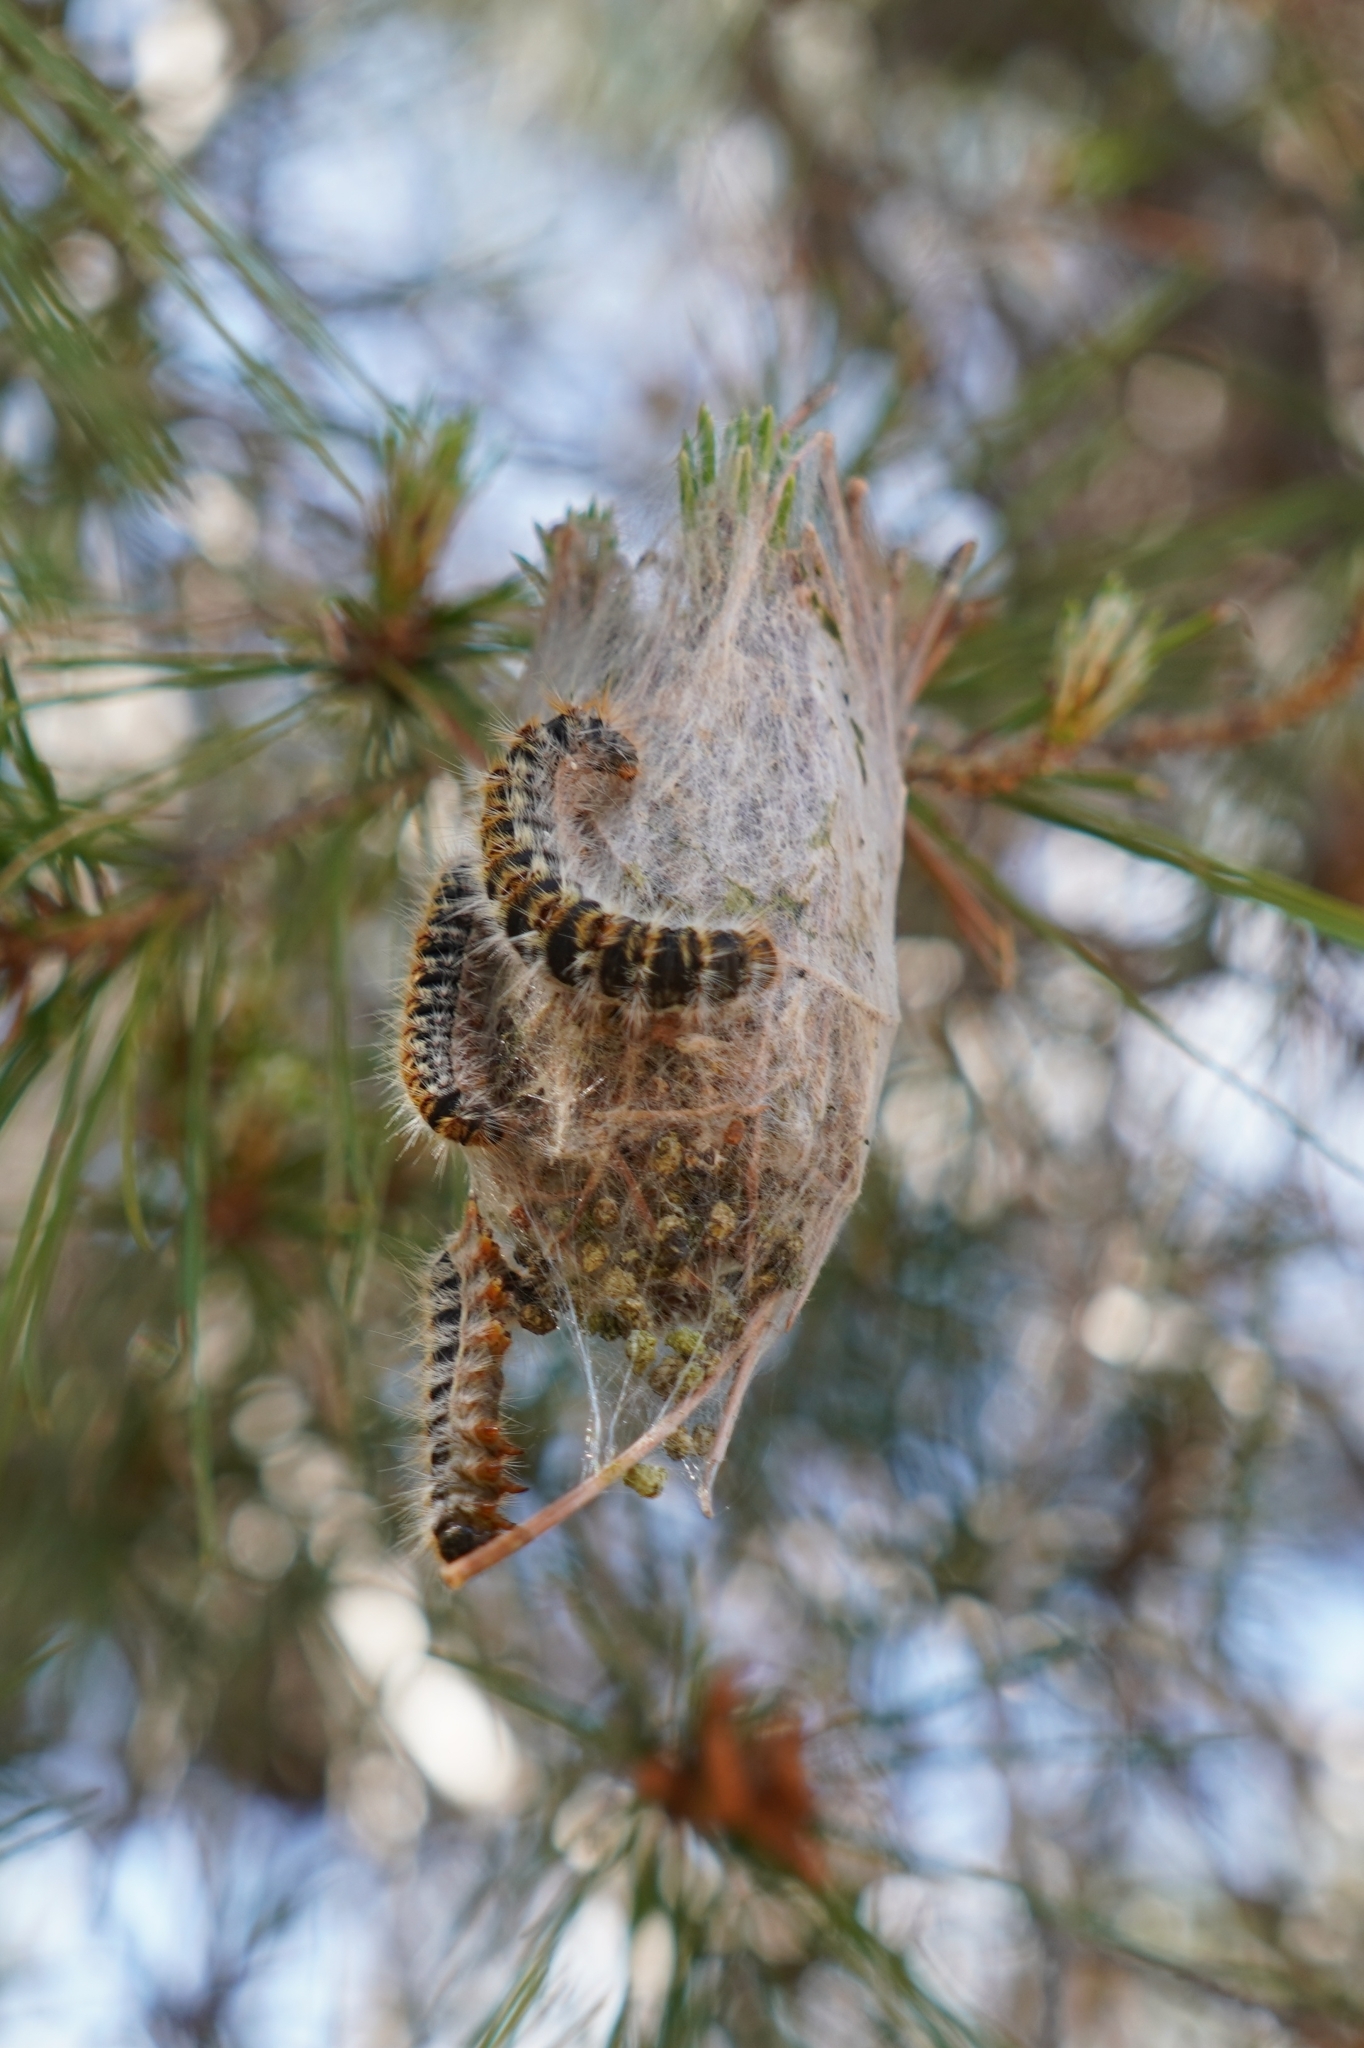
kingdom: Animalia
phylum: Arthropoda
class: Insecta
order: Lepidoptera
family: Notodontidae
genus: Thaumetopoea
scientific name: Thaumetopoea pityocampa
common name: Pine processionary
